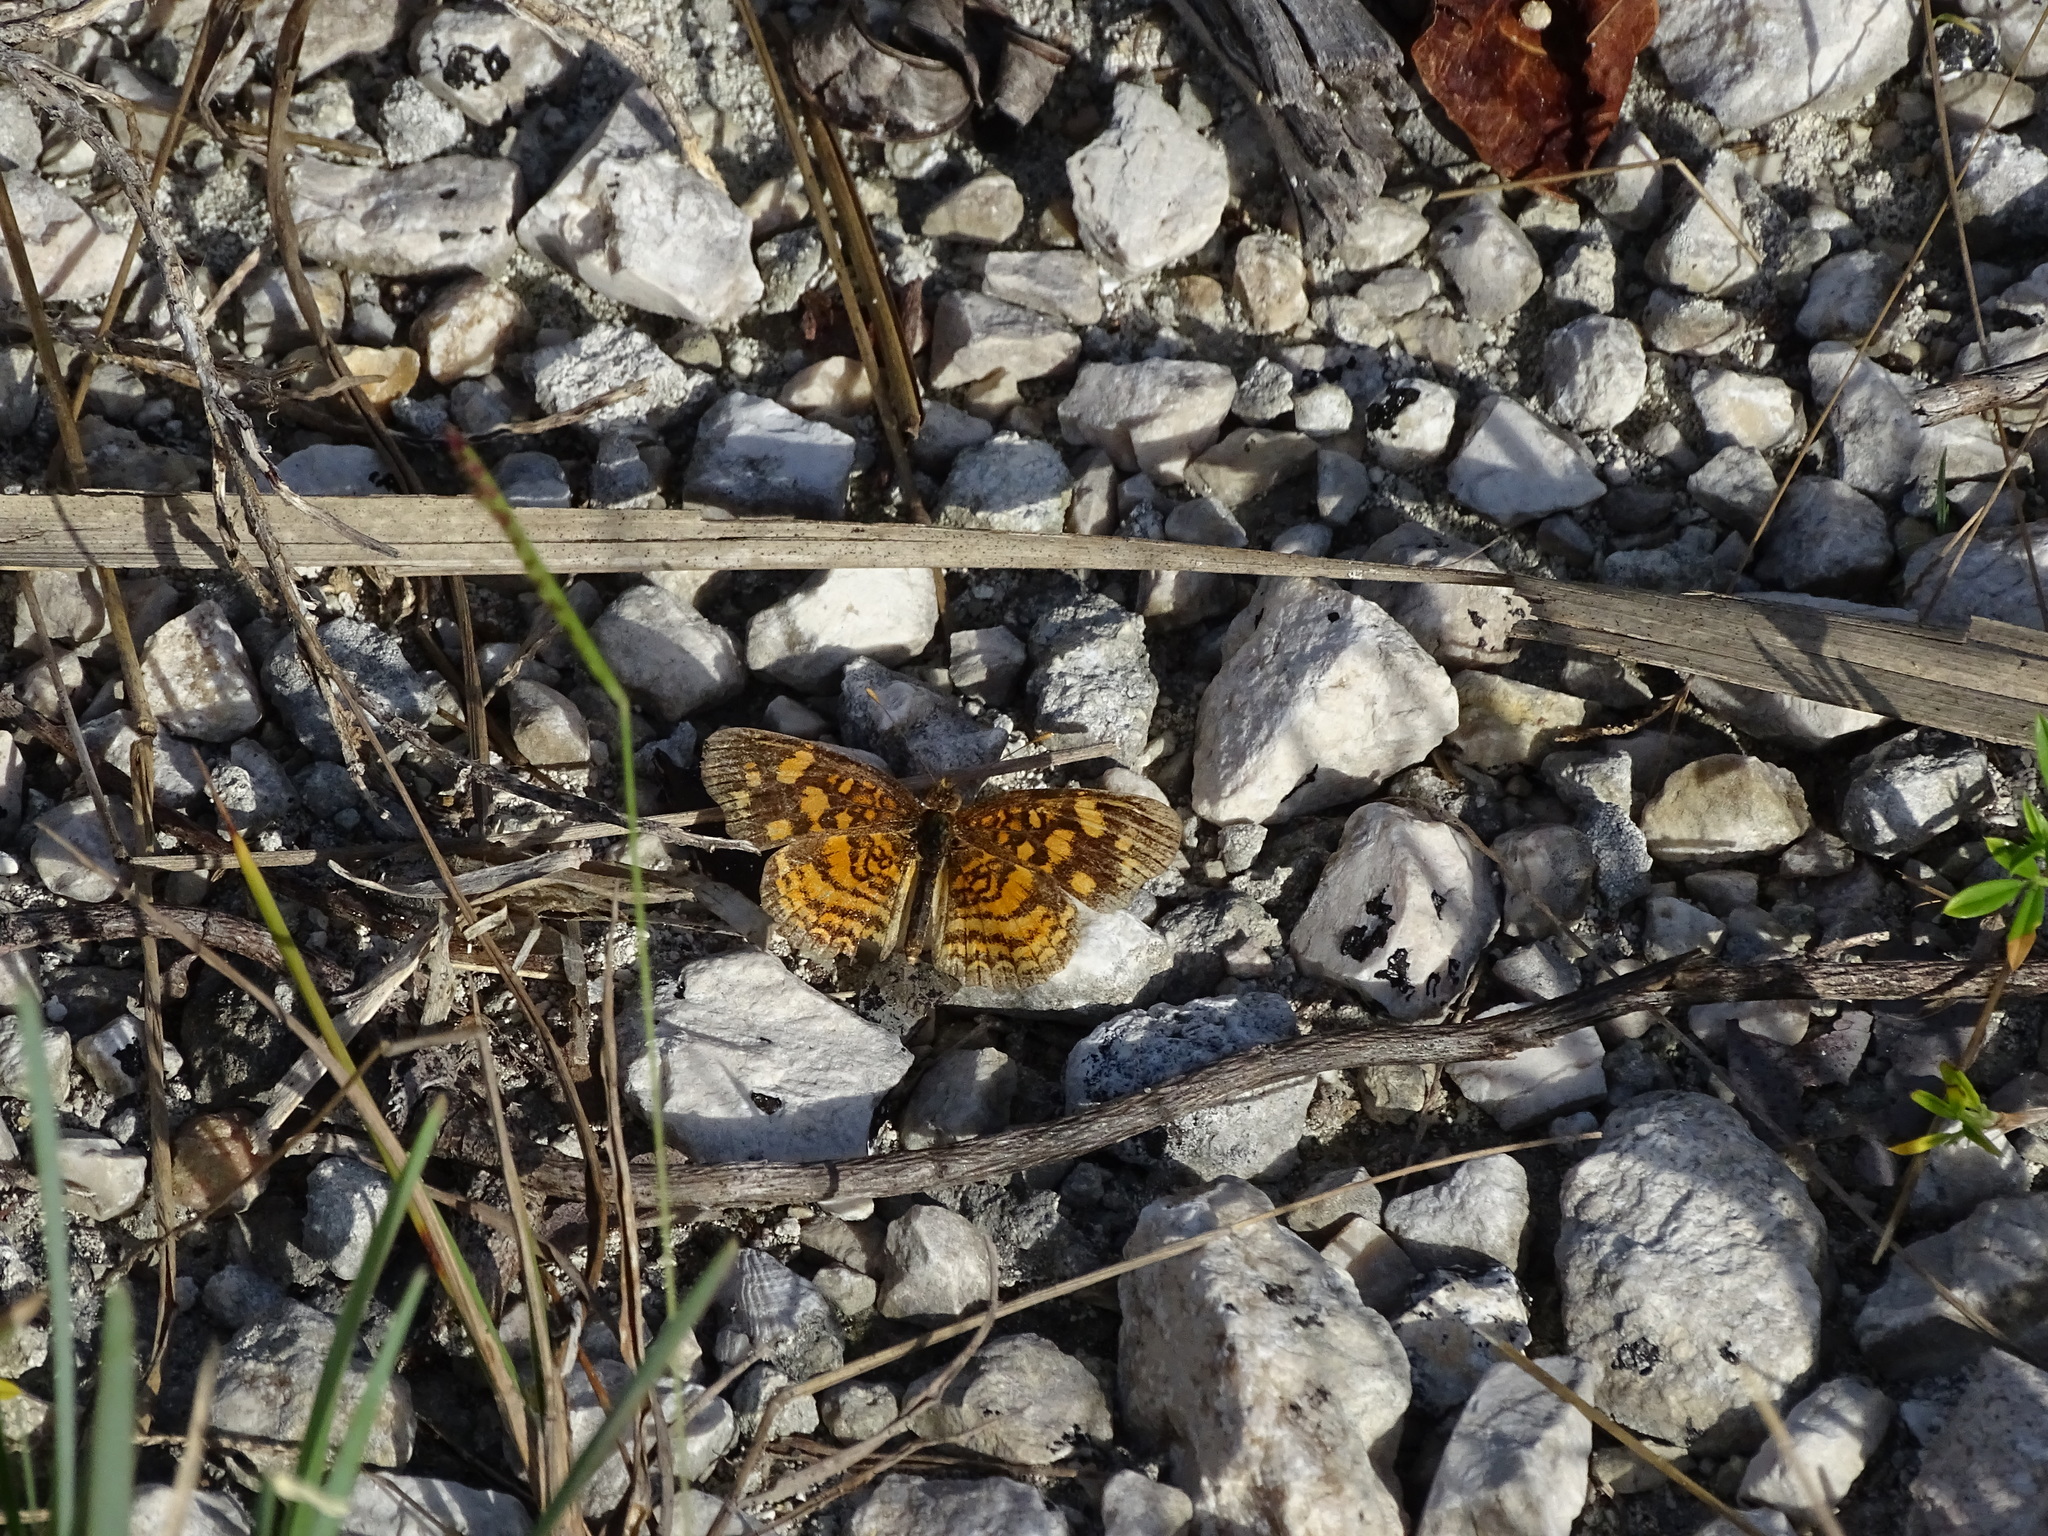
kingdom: Animalia
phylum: Arthropoda
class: Insecta
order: Lepidoptera
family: Nymphalidae
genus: Anthanassa
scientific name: Anthanassa frisia
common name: Cuban crescent
